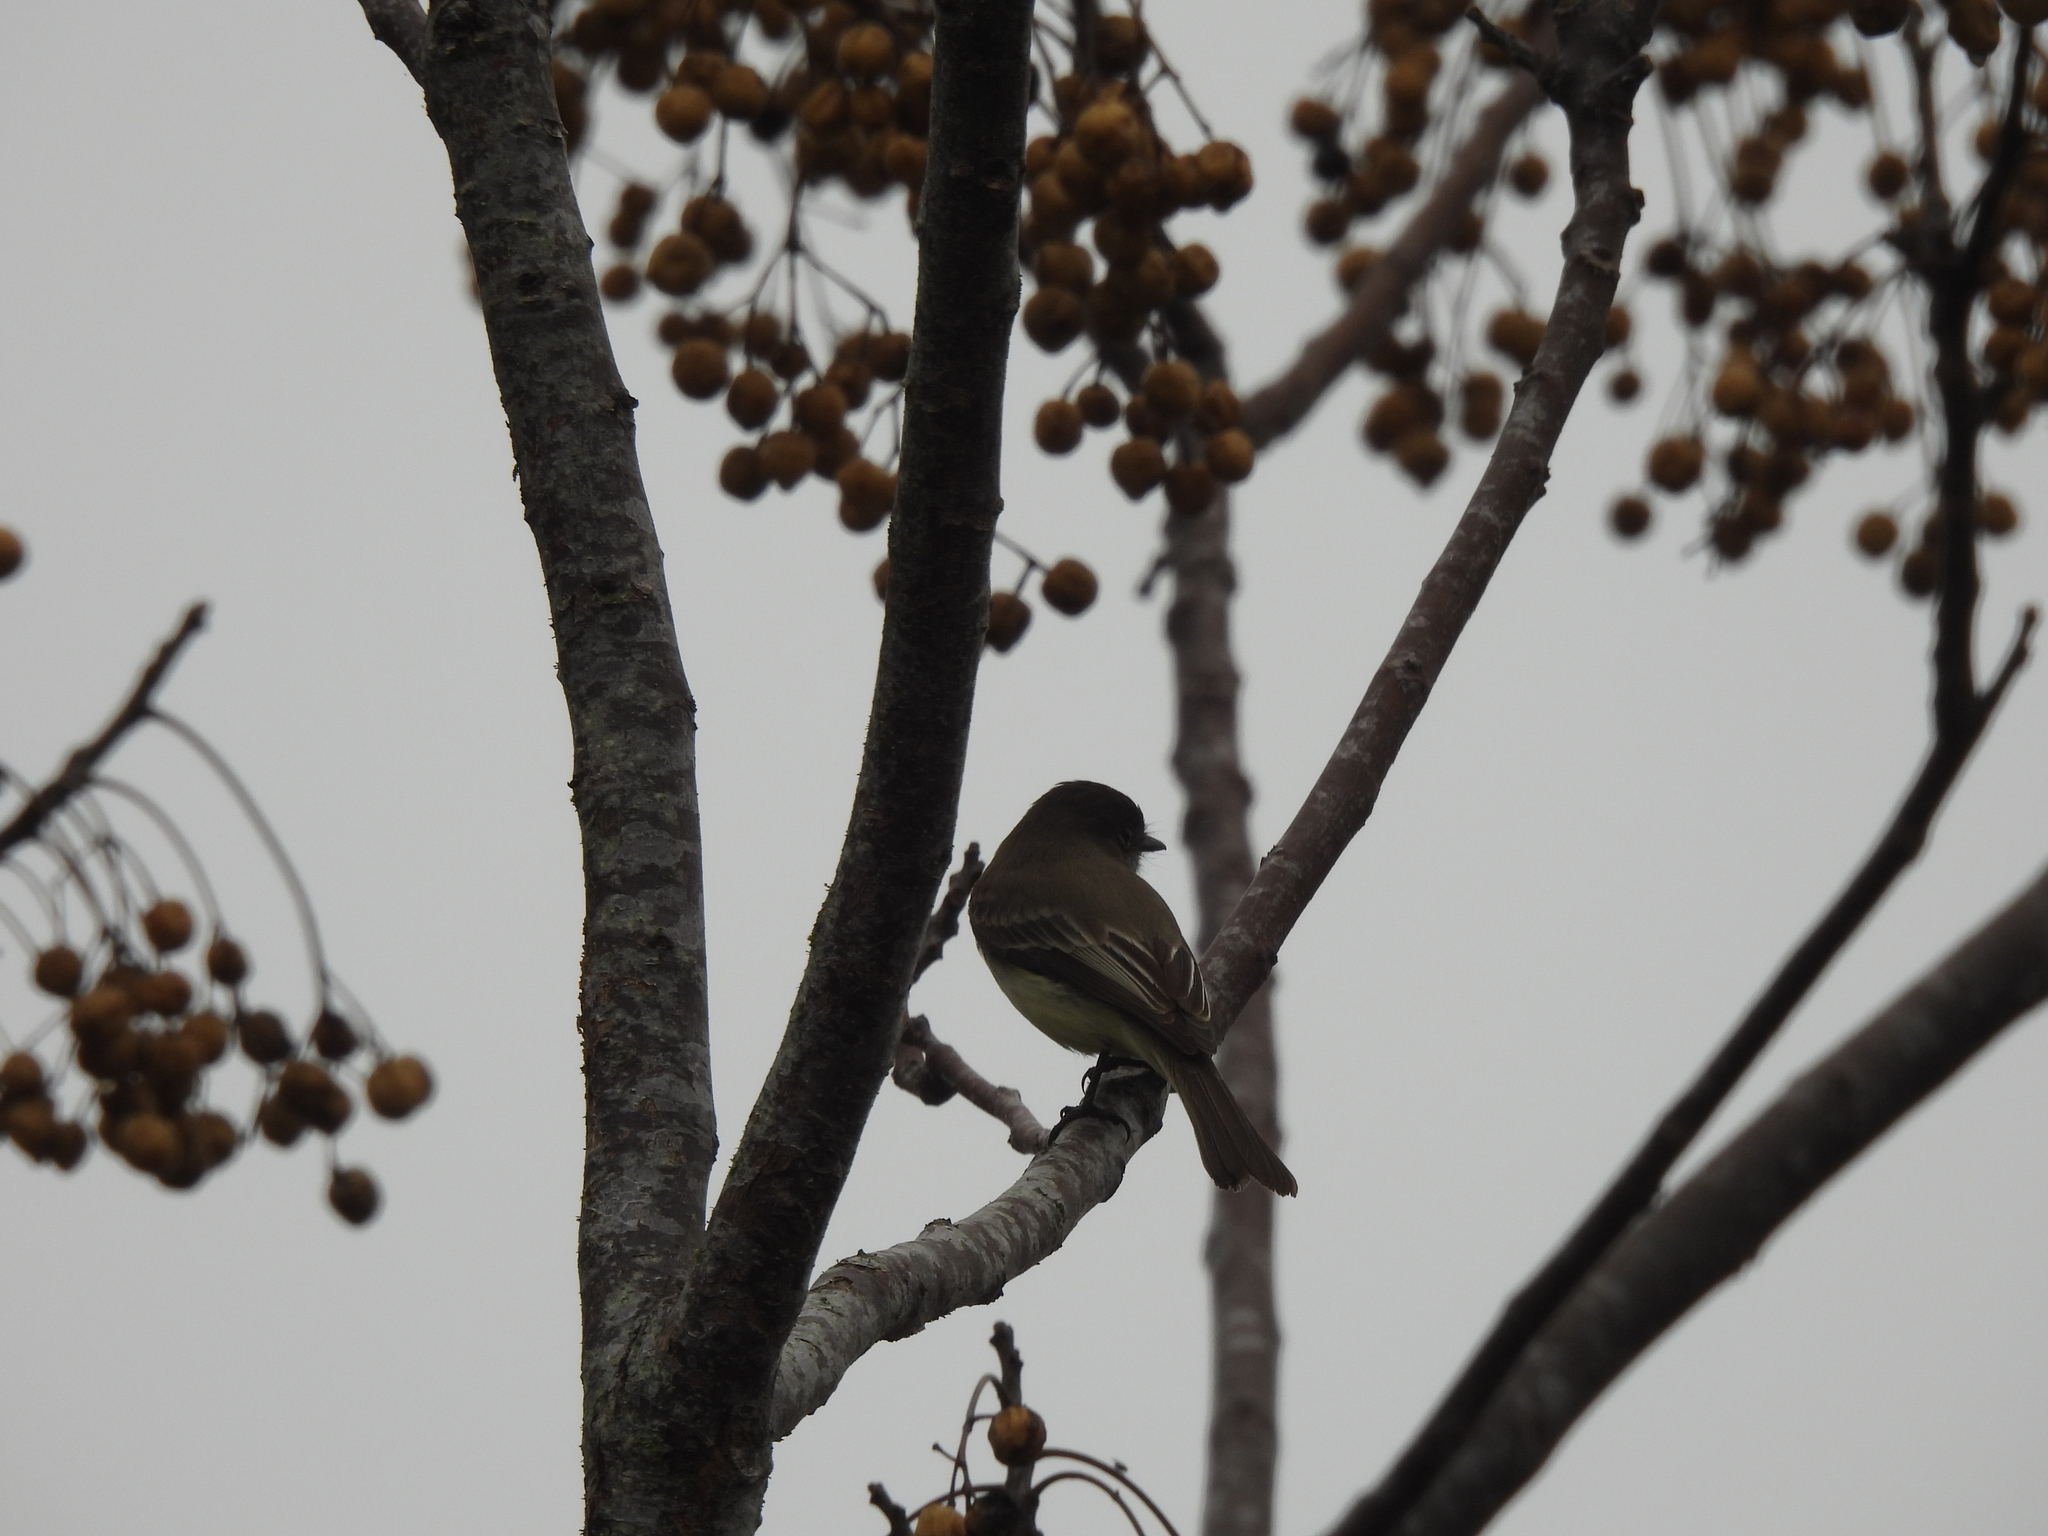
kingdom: Animalia
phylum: Chordata
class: Aves
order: Passeriformes
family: Tyrannidae
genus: Sayornis
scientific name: Sayornis phoebe
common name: Eastern phoebe
